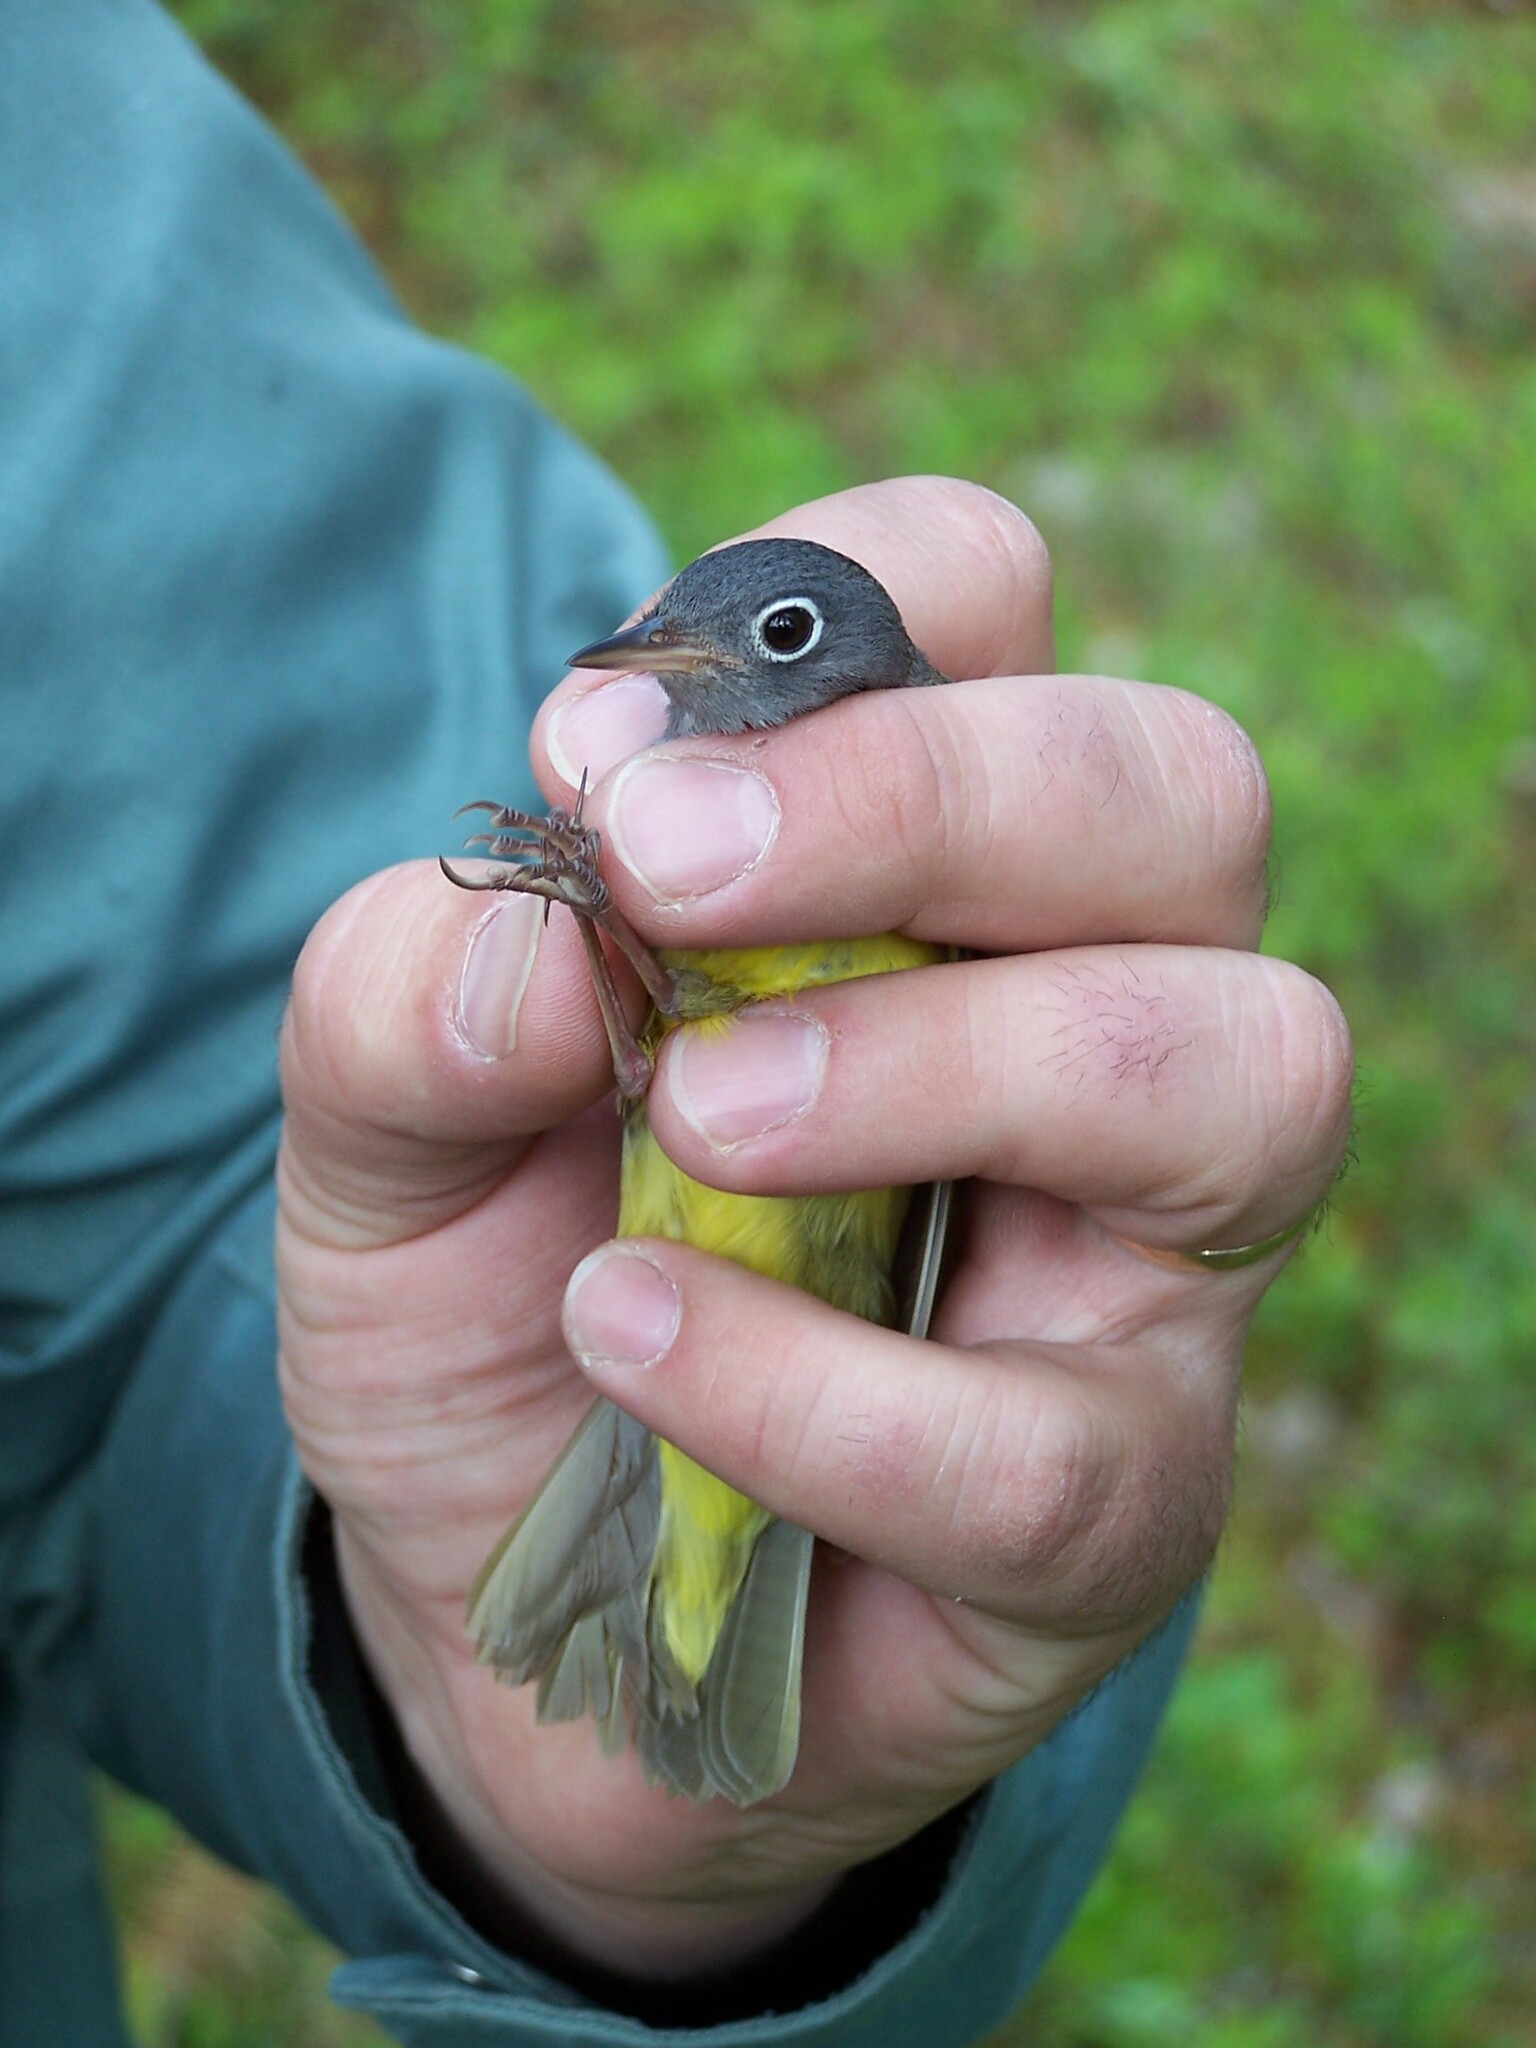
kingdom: Animalia
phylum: Chordata
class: Aves
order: Passeriformes
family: Parulidae
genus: Oporornis
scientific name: Oporornis agilis
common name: Connecticut warbler
